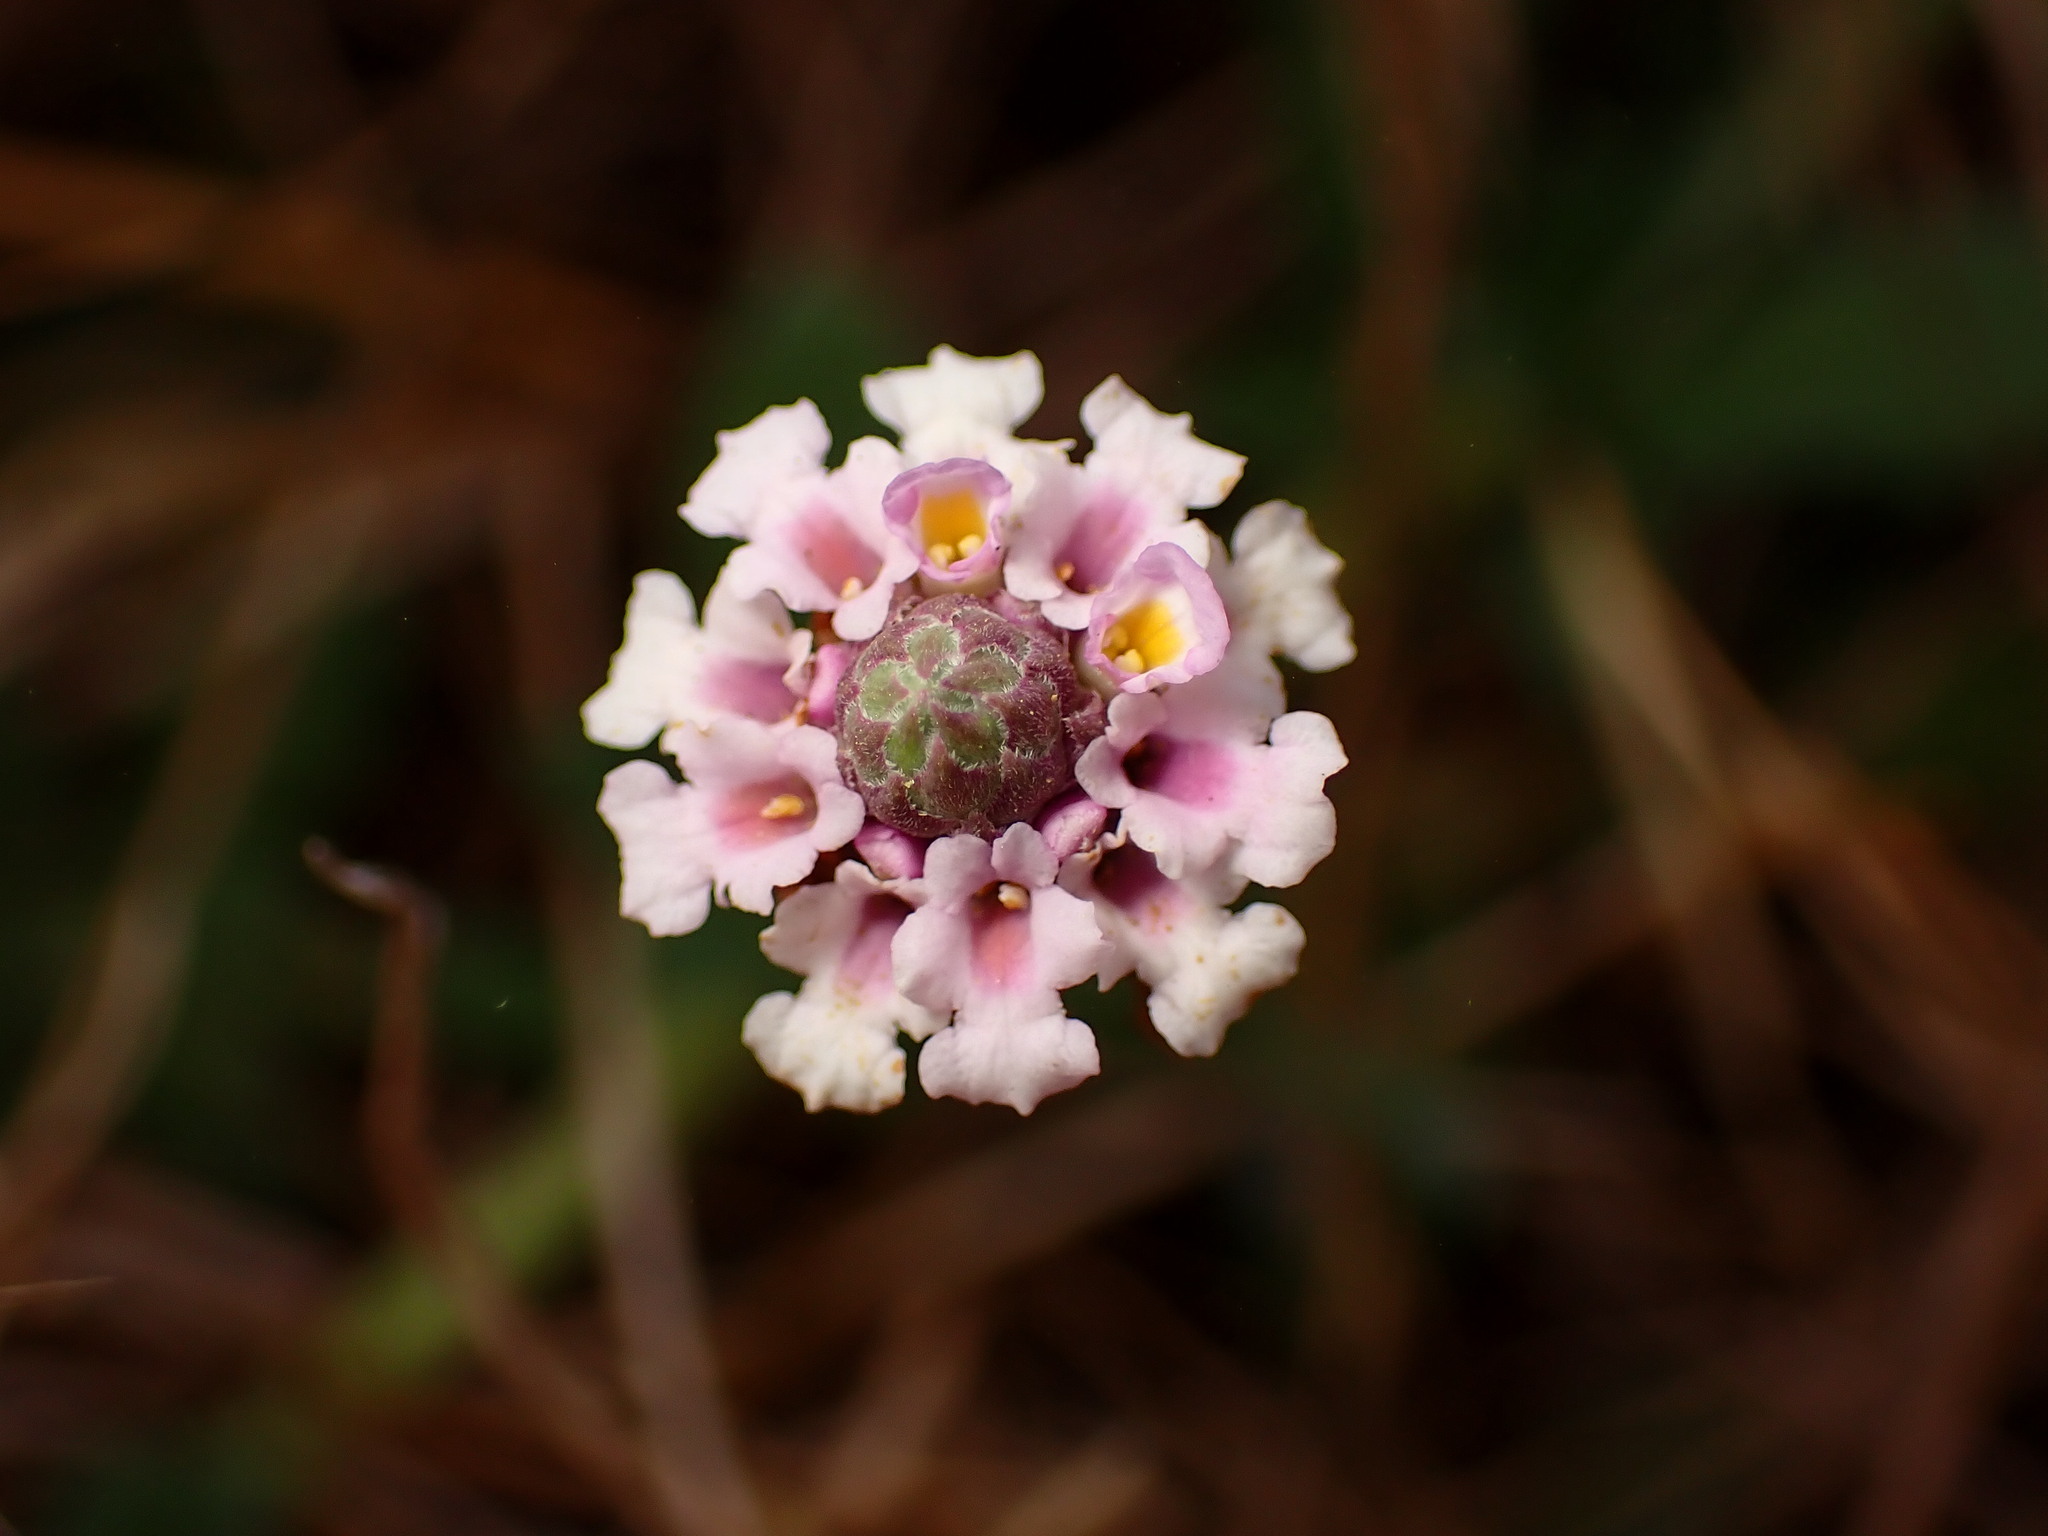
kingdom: Plantae
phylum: Tracheophyta
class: Magnoliopsida
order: Lamiales
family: Verbenaceae
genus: Phyla
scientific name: Phyla nodiflora
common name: Frogfruit
